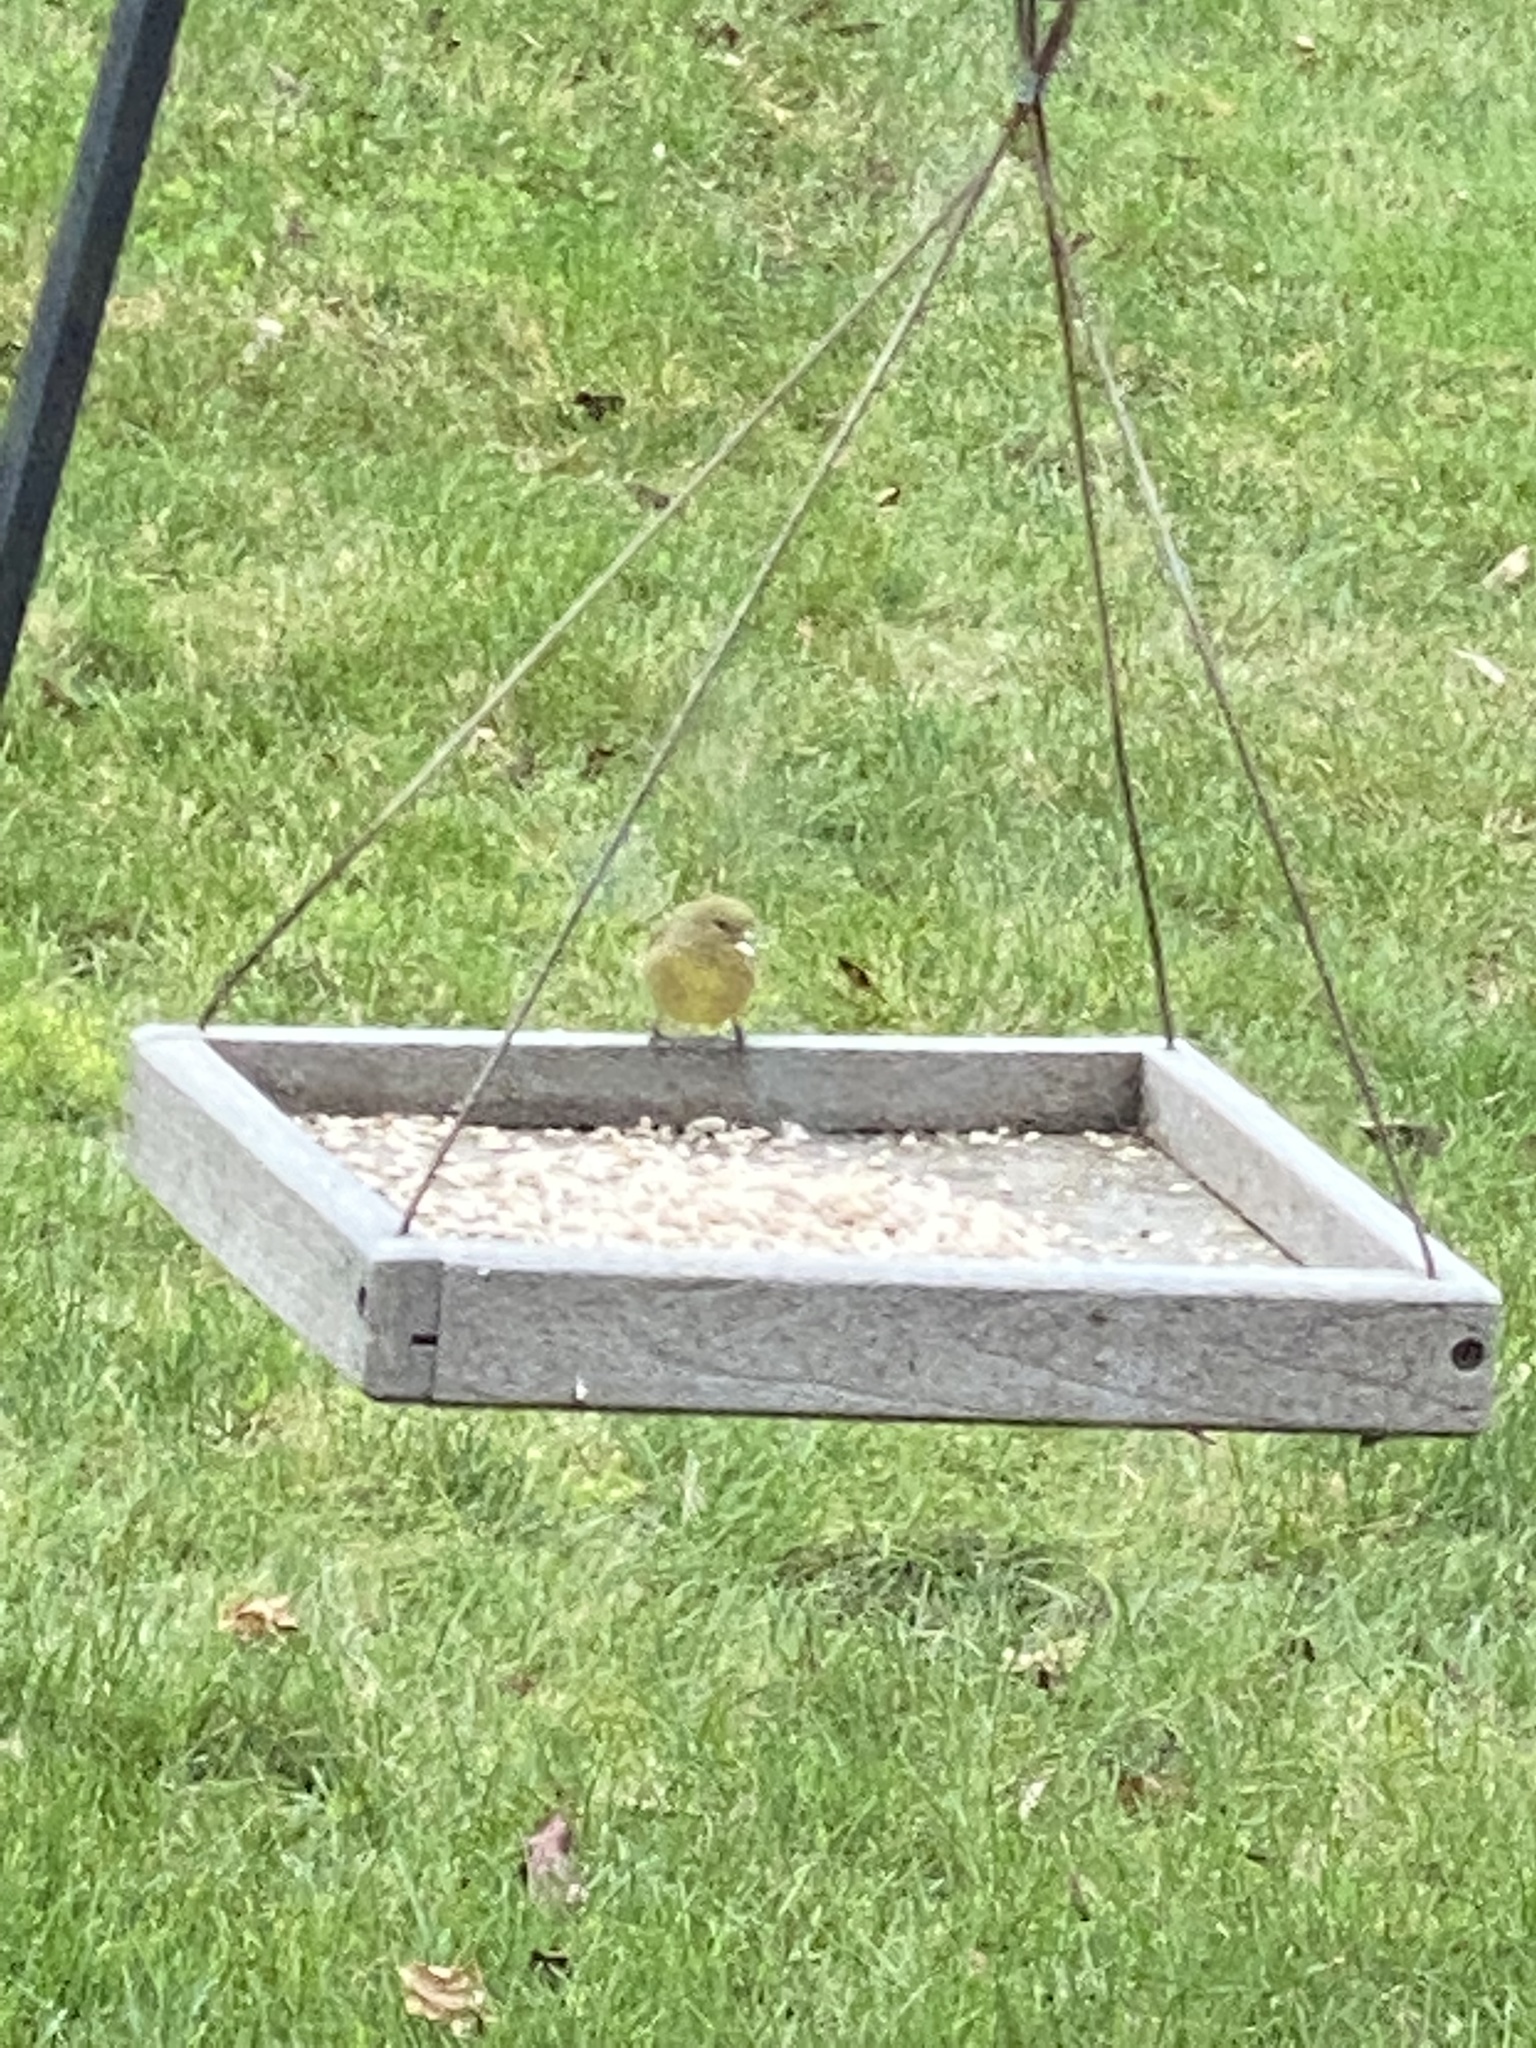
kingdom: Animalia
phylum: Chordata
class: Aves
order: Passeriformes
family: Fringillidae
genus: Spinus
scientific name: Spinus psaltria
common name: Lesser goldfinch
